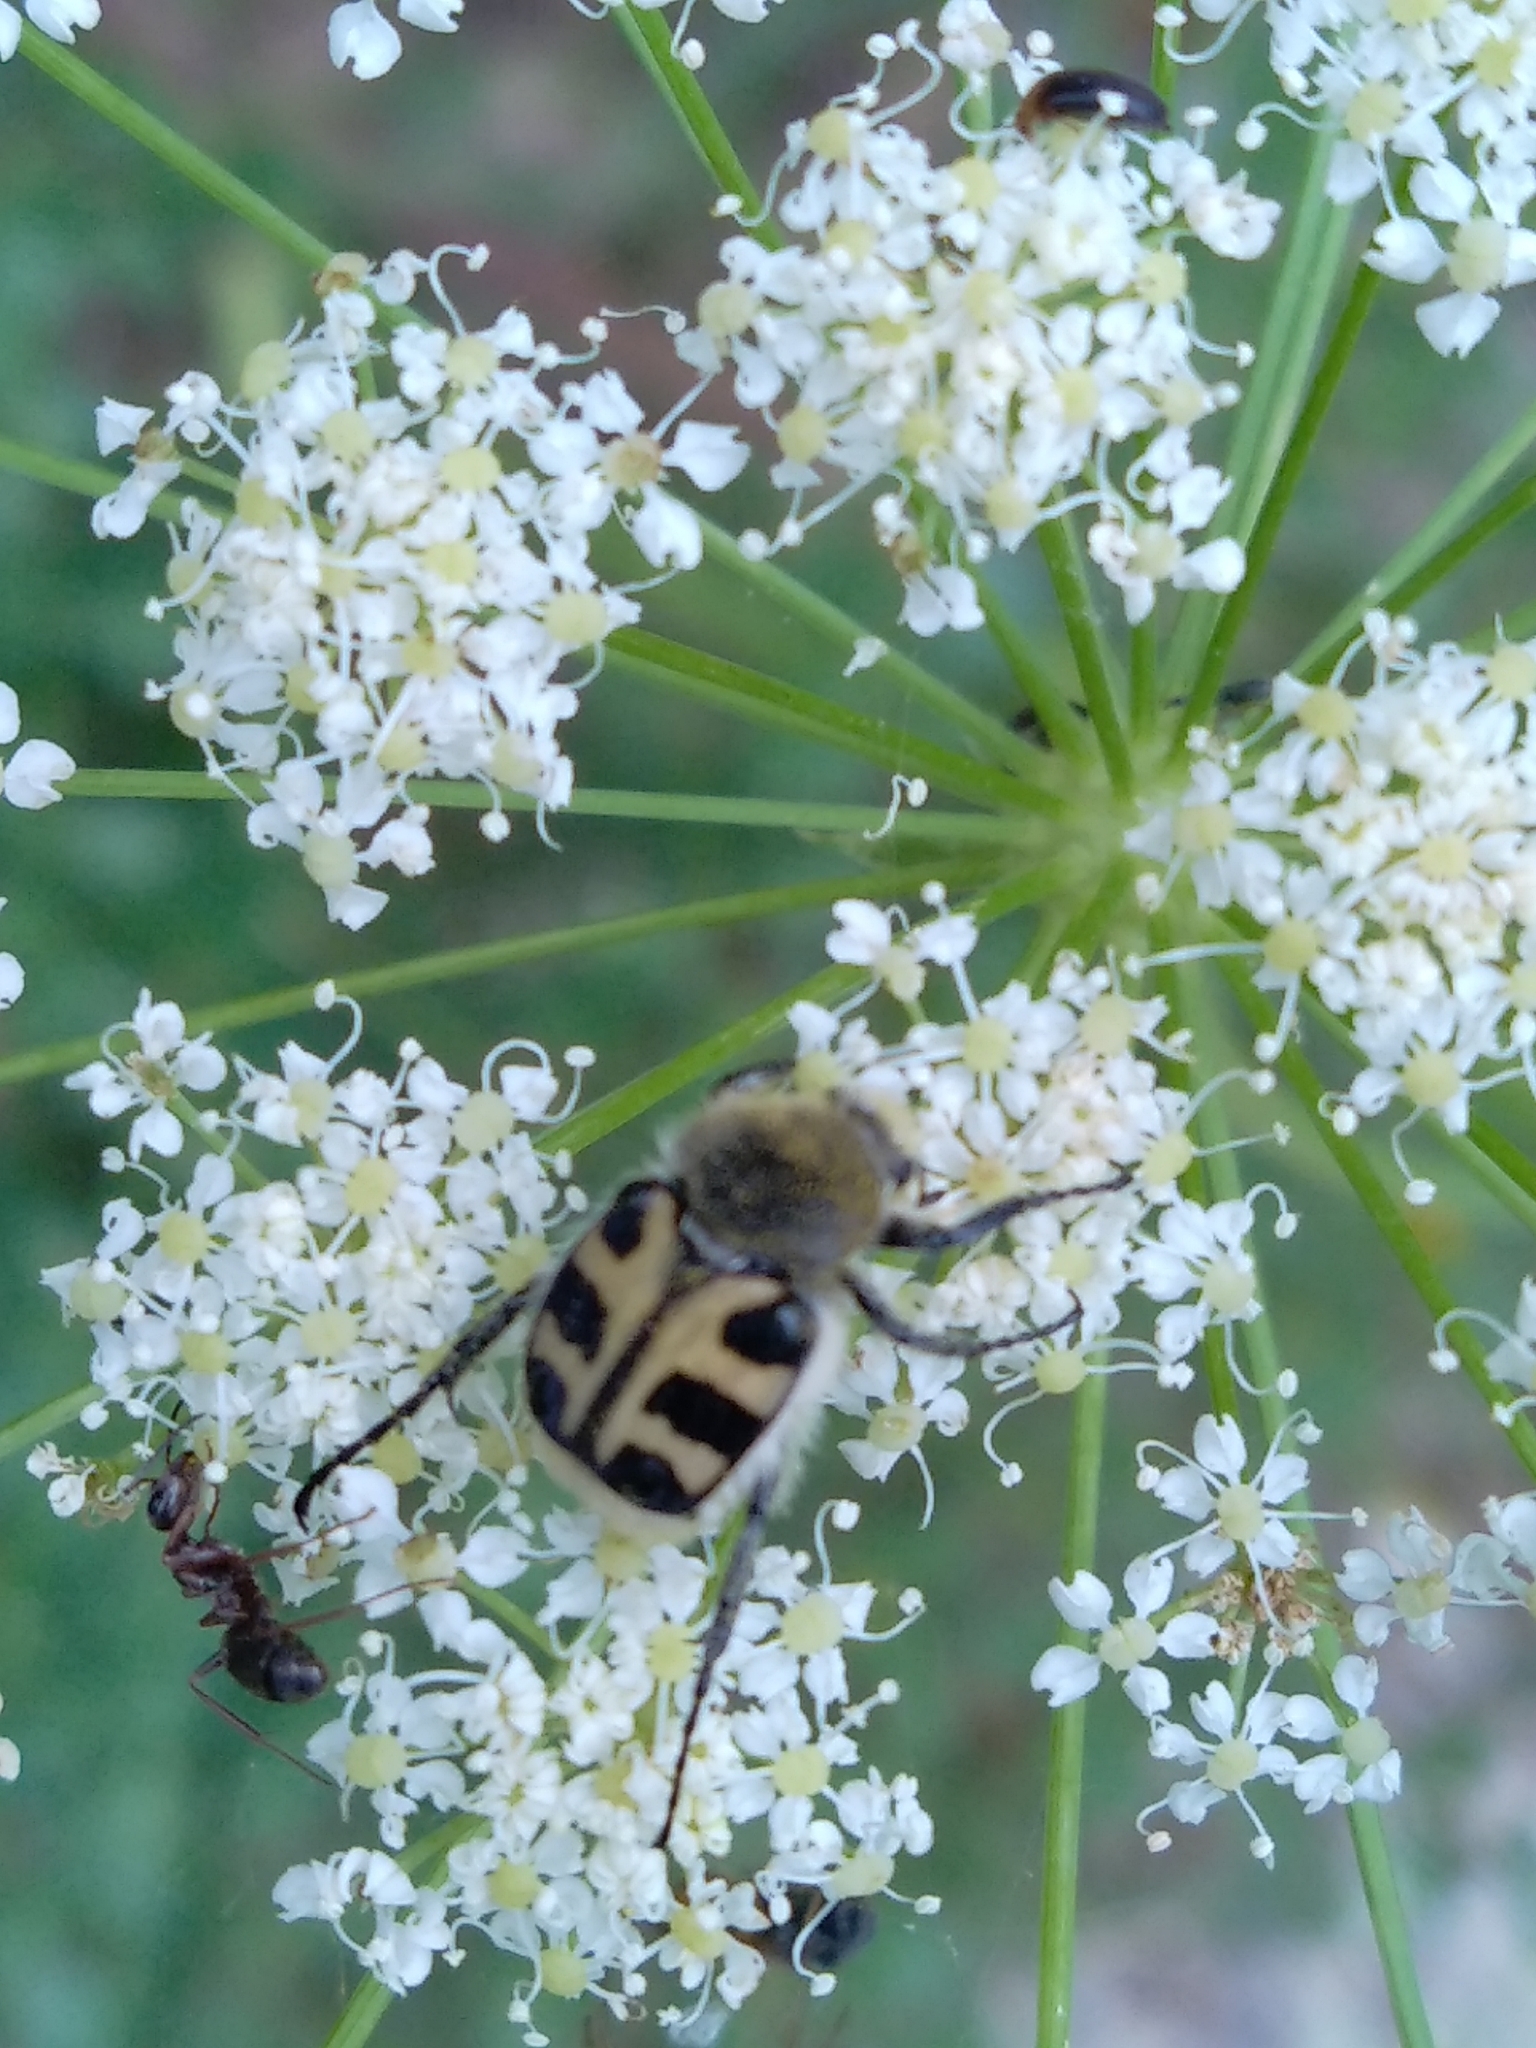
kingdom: Animalia
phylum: Arthropoda
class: Insecta
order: Coleoptera
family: Scarabaeidae
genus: Trichius
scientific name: Trichius gallicus
